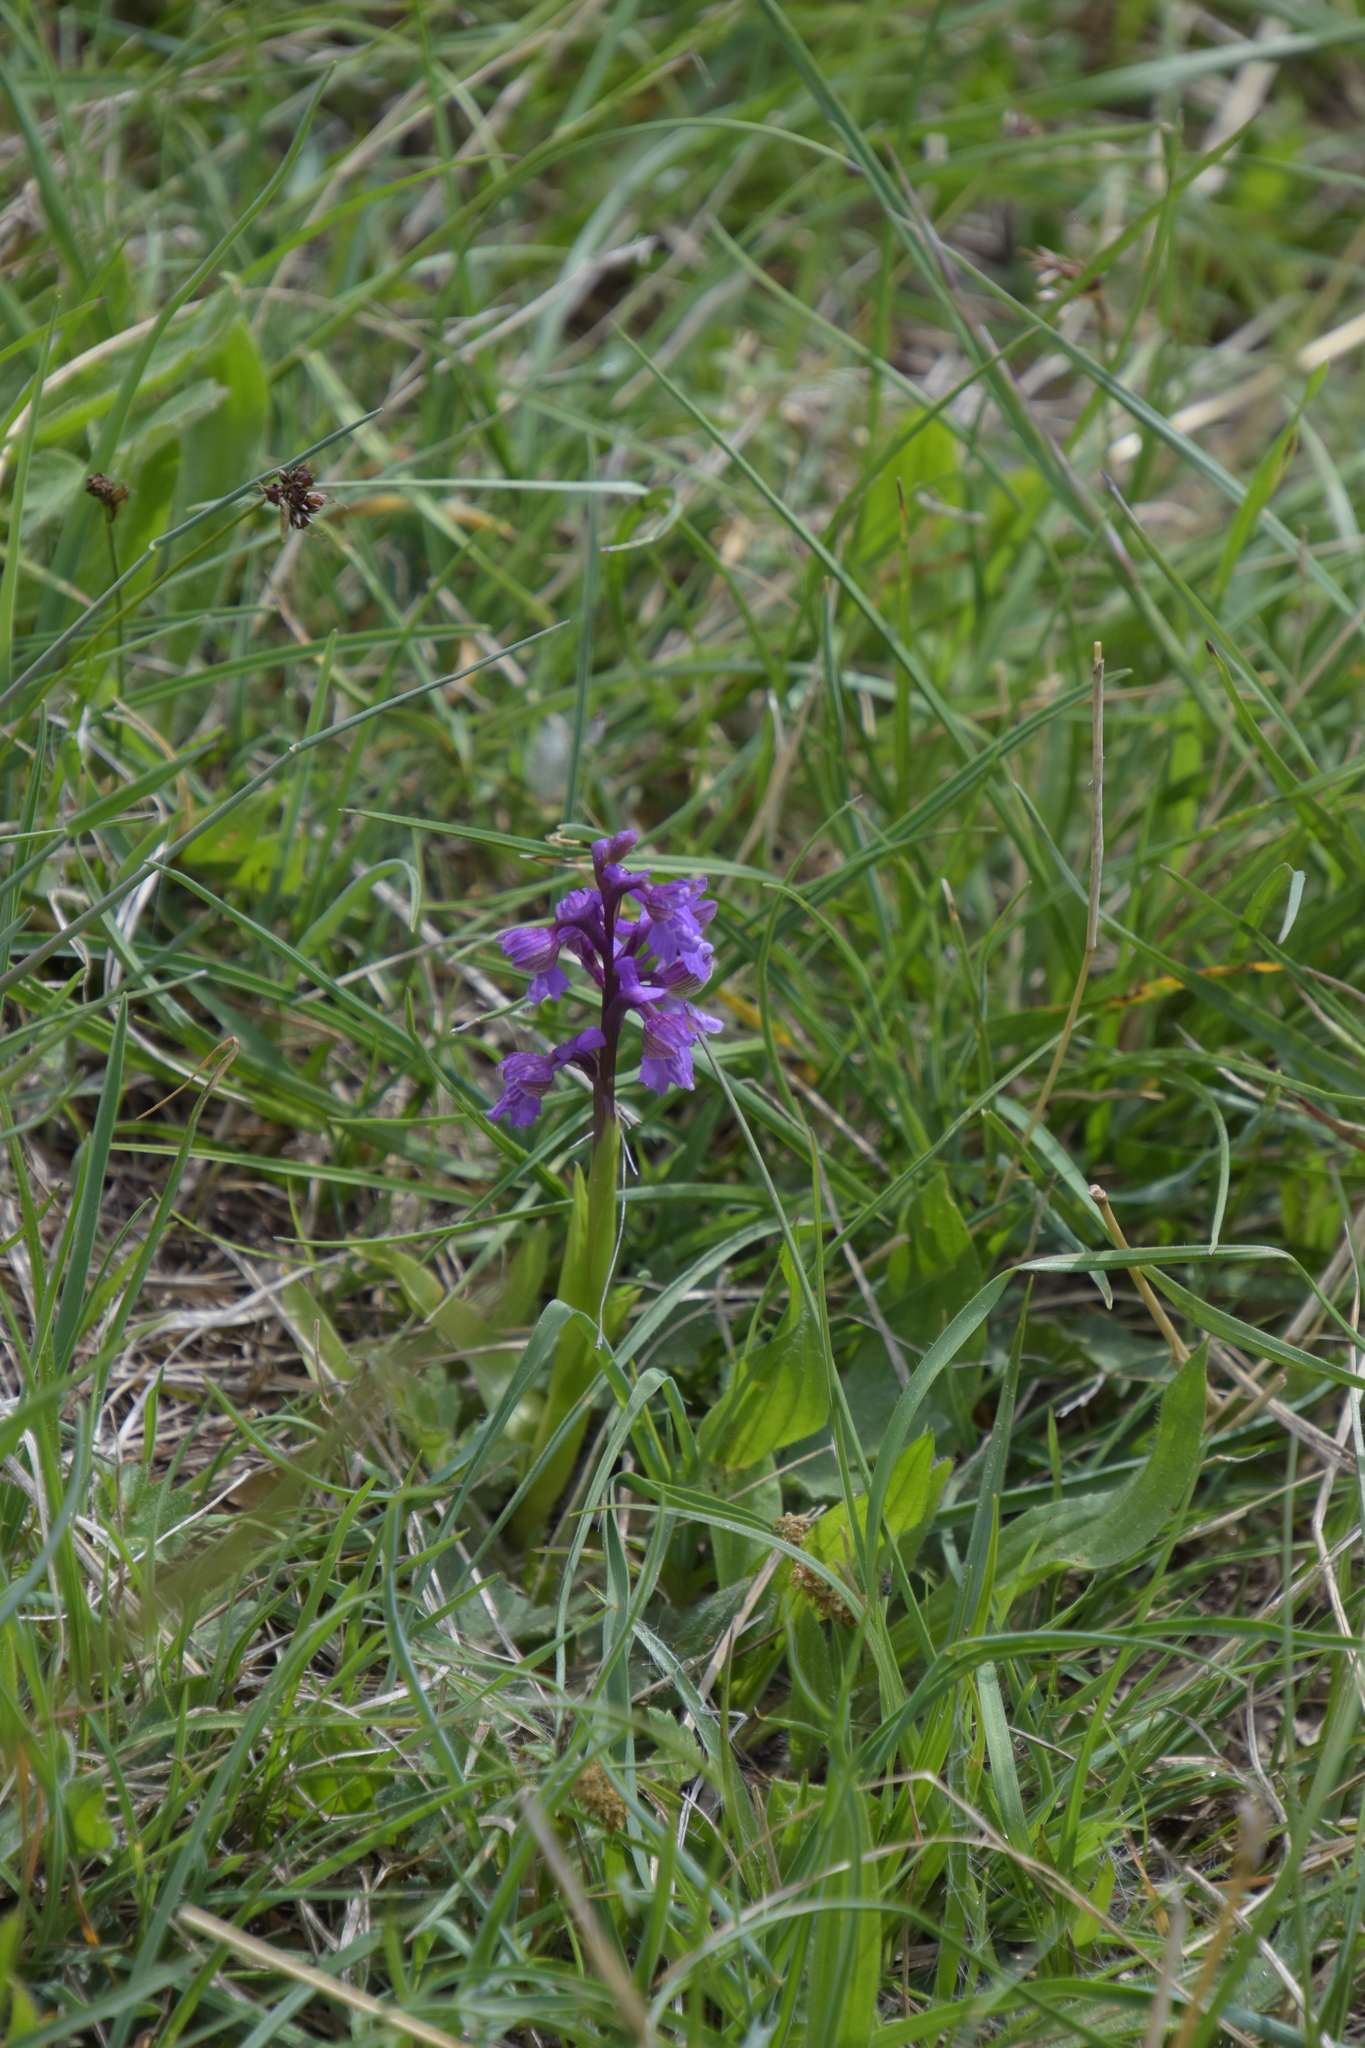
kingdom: Plantae
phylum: Tracheophyta
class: Liliopsida
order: Asparagales
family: Orchidaceae
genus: Anacamptis
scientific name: Anacamptis morio
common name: Green-winged orchid
